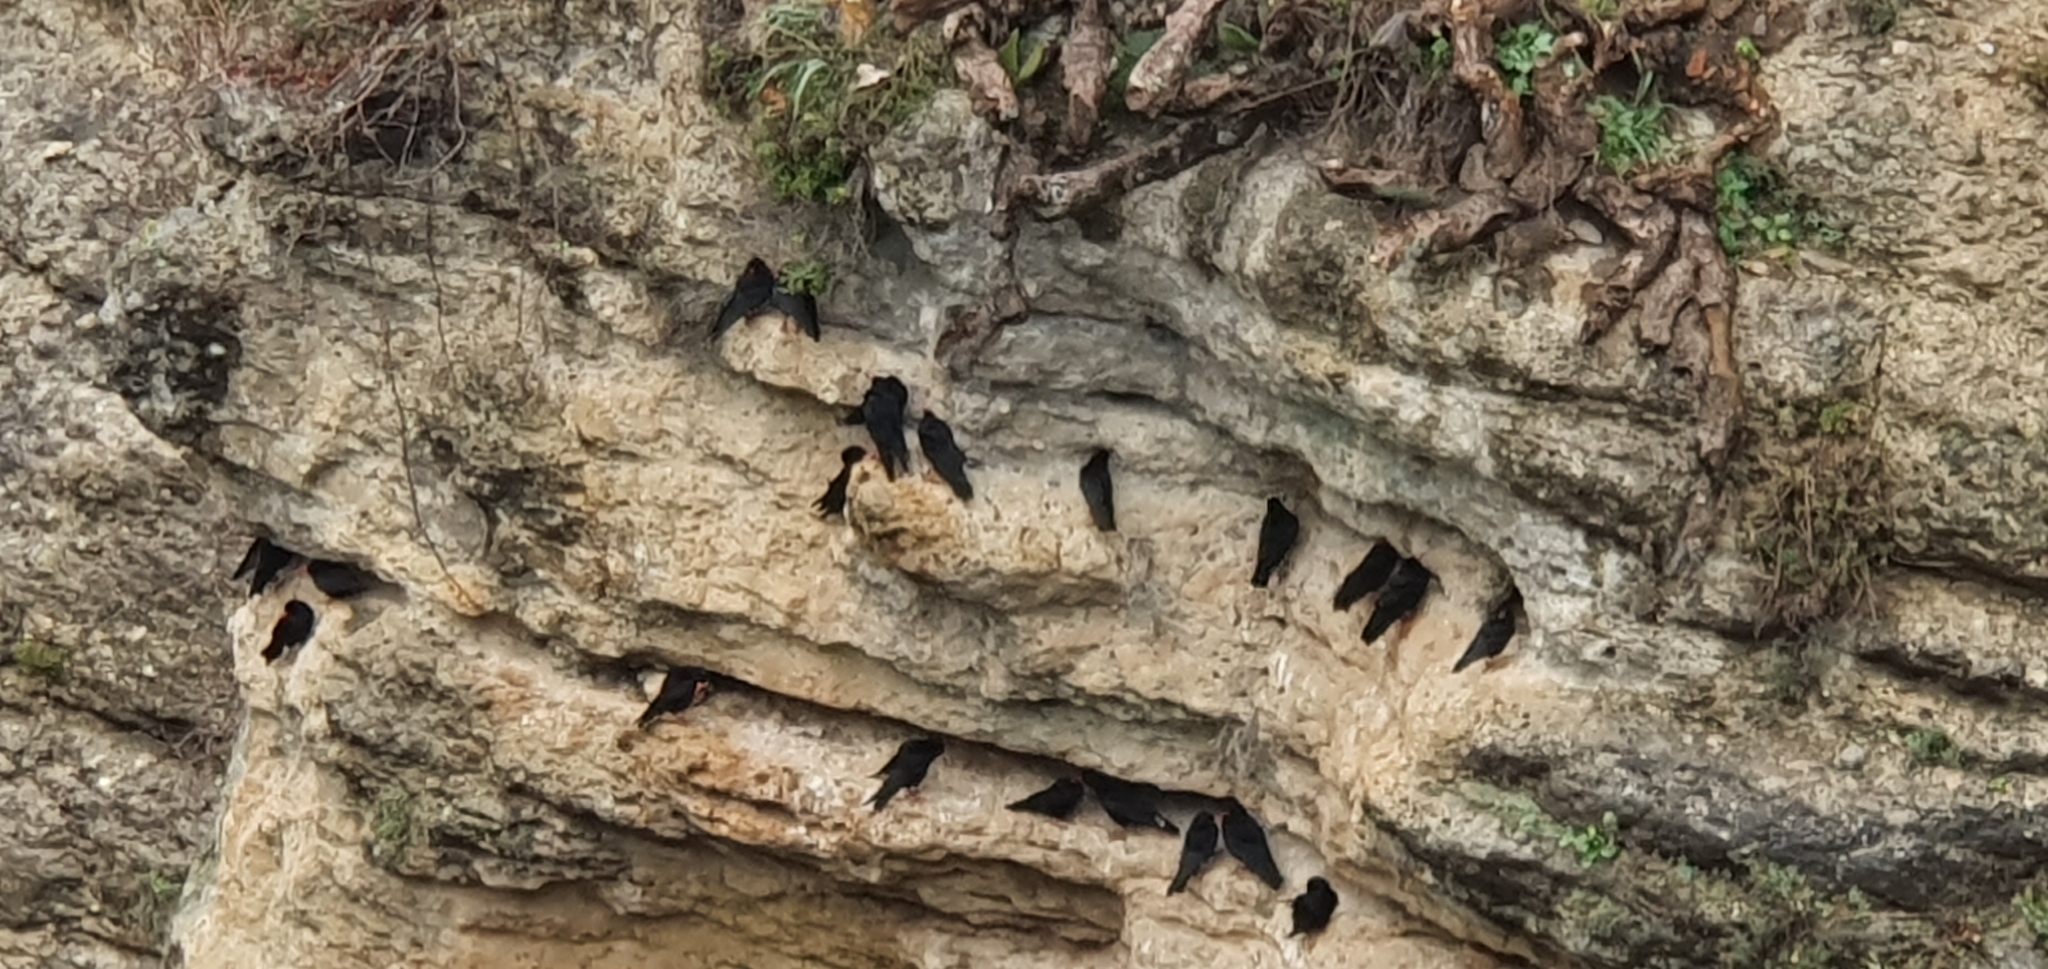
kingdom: Animalia
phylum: Chordata
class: Aves
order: Passeriformes
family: Corvidae
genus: Pyrrhocorax
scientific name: Pyrrhocorax pyrrhocorax
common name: Red-billed chough
